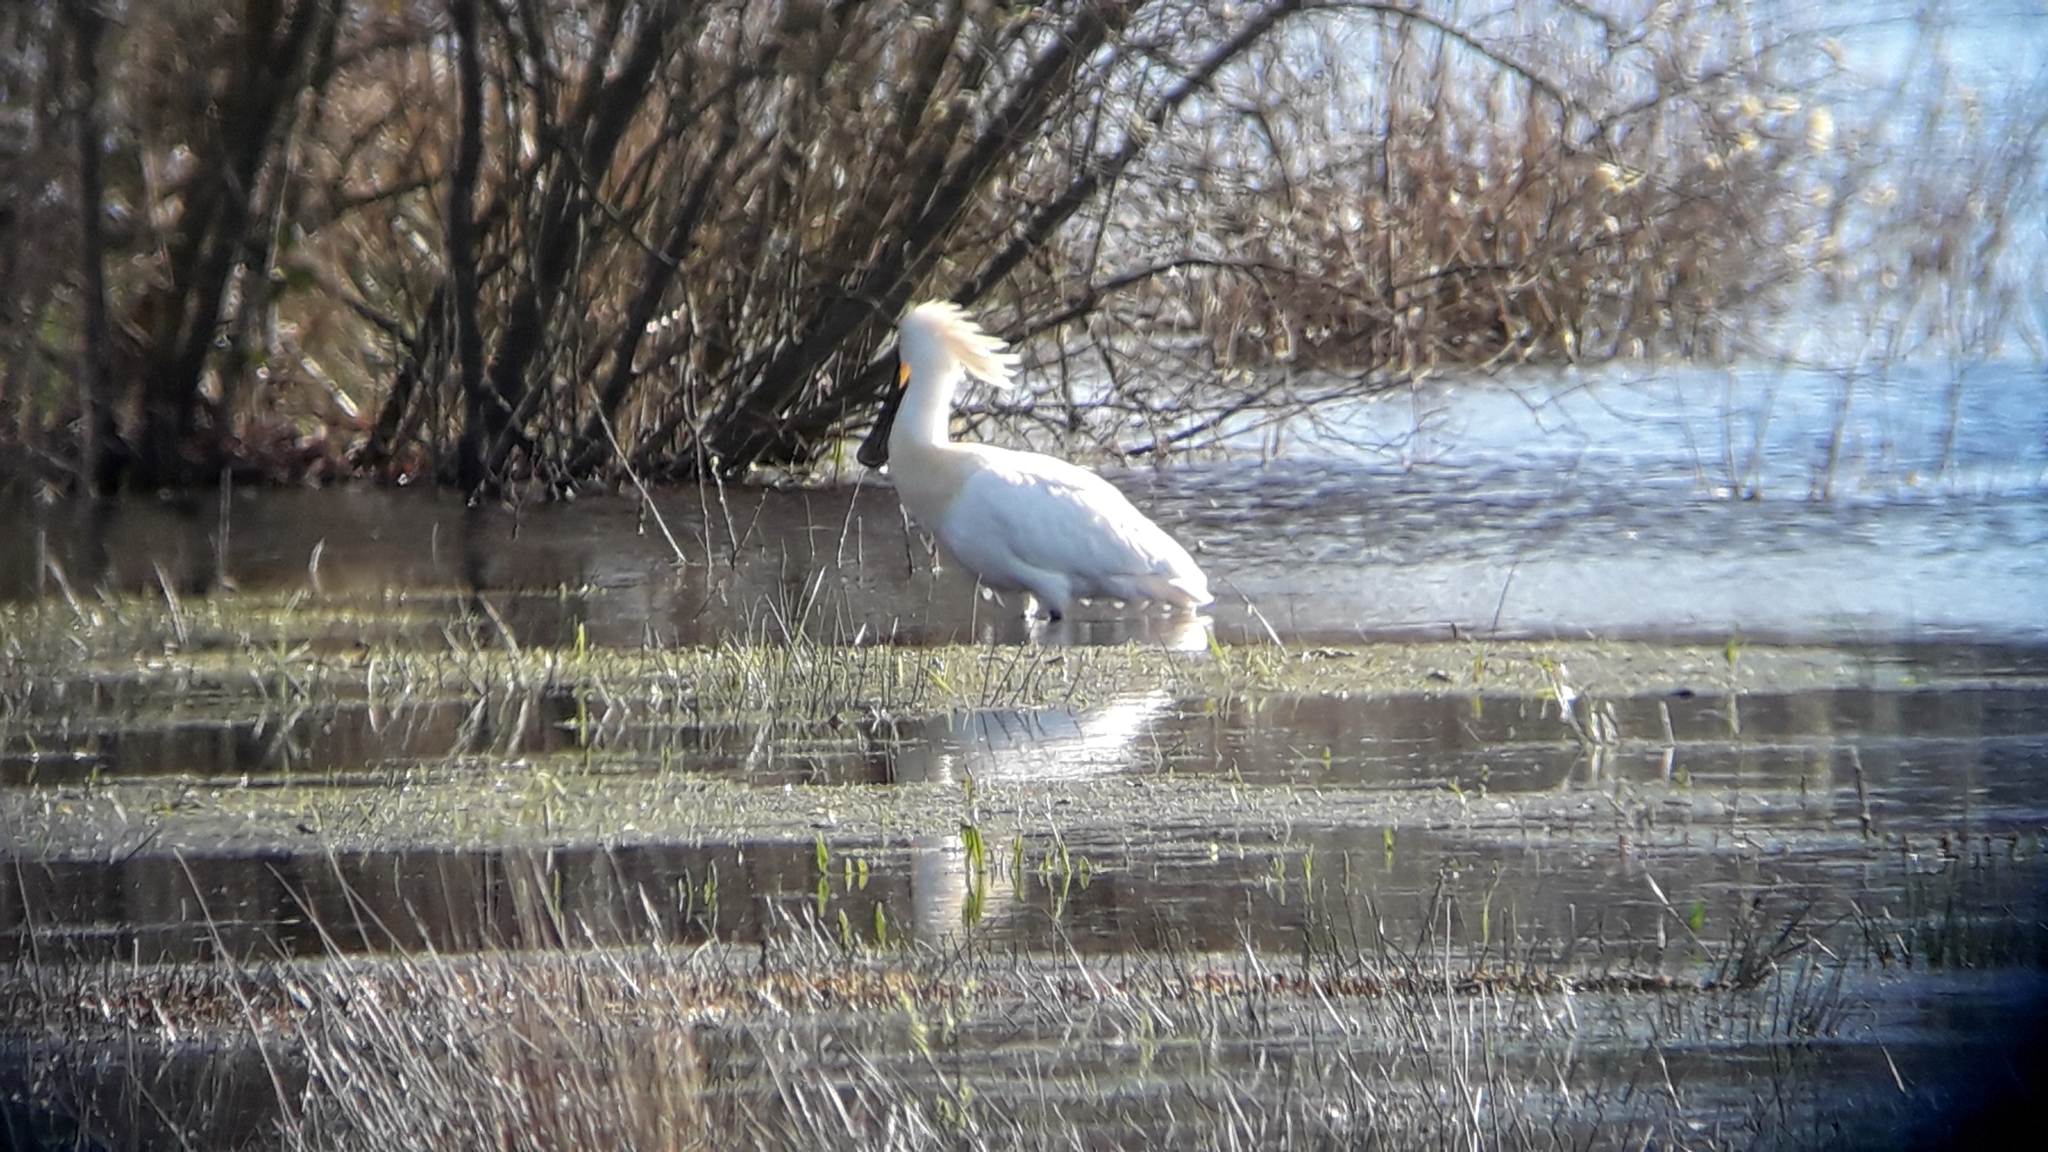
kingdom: Animalia
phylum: Chordata
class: Aves
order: Pelecaniformes
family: Threskiornithidae
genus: Platalea
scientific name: Platalea leucorodia
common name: Eurasian spoonbill
